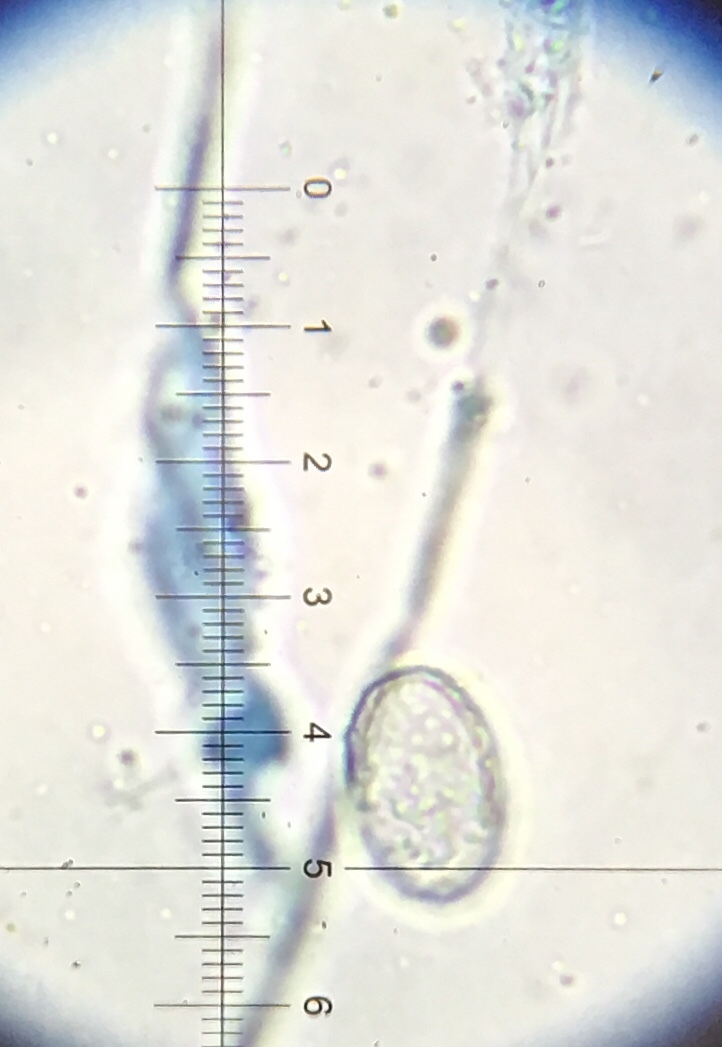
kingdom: Fungi
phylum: Ascomycota
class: Pezizomycetes
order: Pezizales
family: Pyronemataceae
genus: Scutellinia
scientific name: Scutellinia scutellata
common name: Common eyelash
